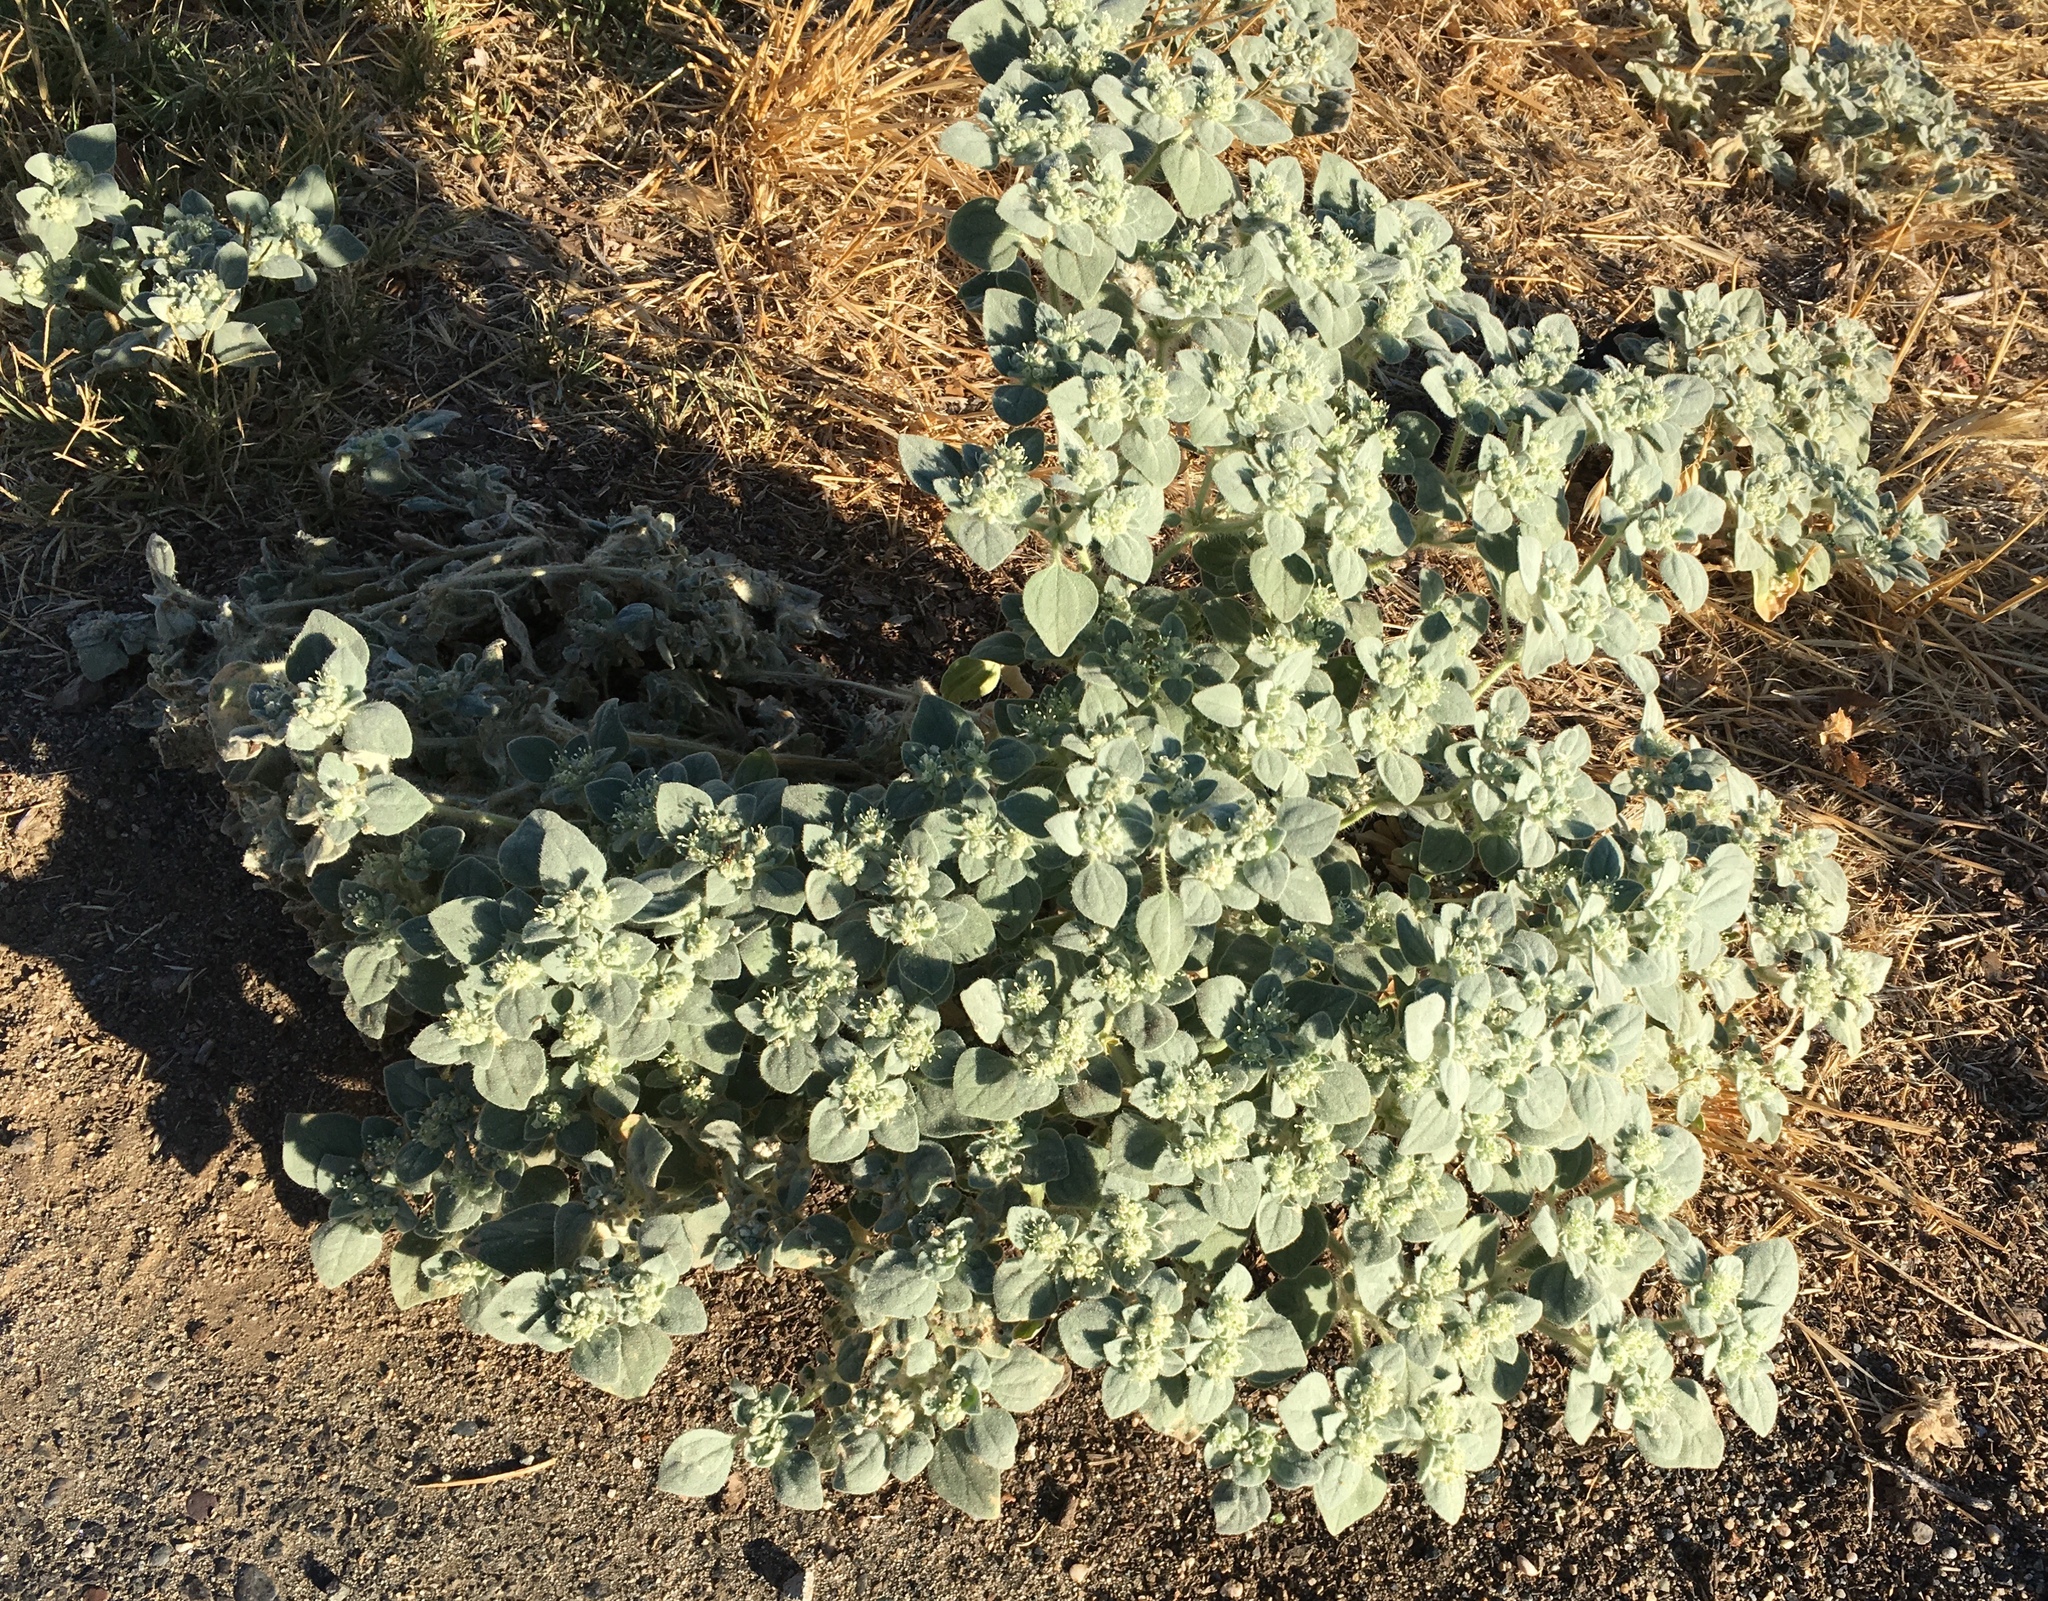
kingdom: Plantae
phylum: Tracheophyta
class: Magnoliopsida
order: Malpighiales
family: Euphorbiaceae
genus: Croton
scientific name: Croton setiger
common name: Dove weed
